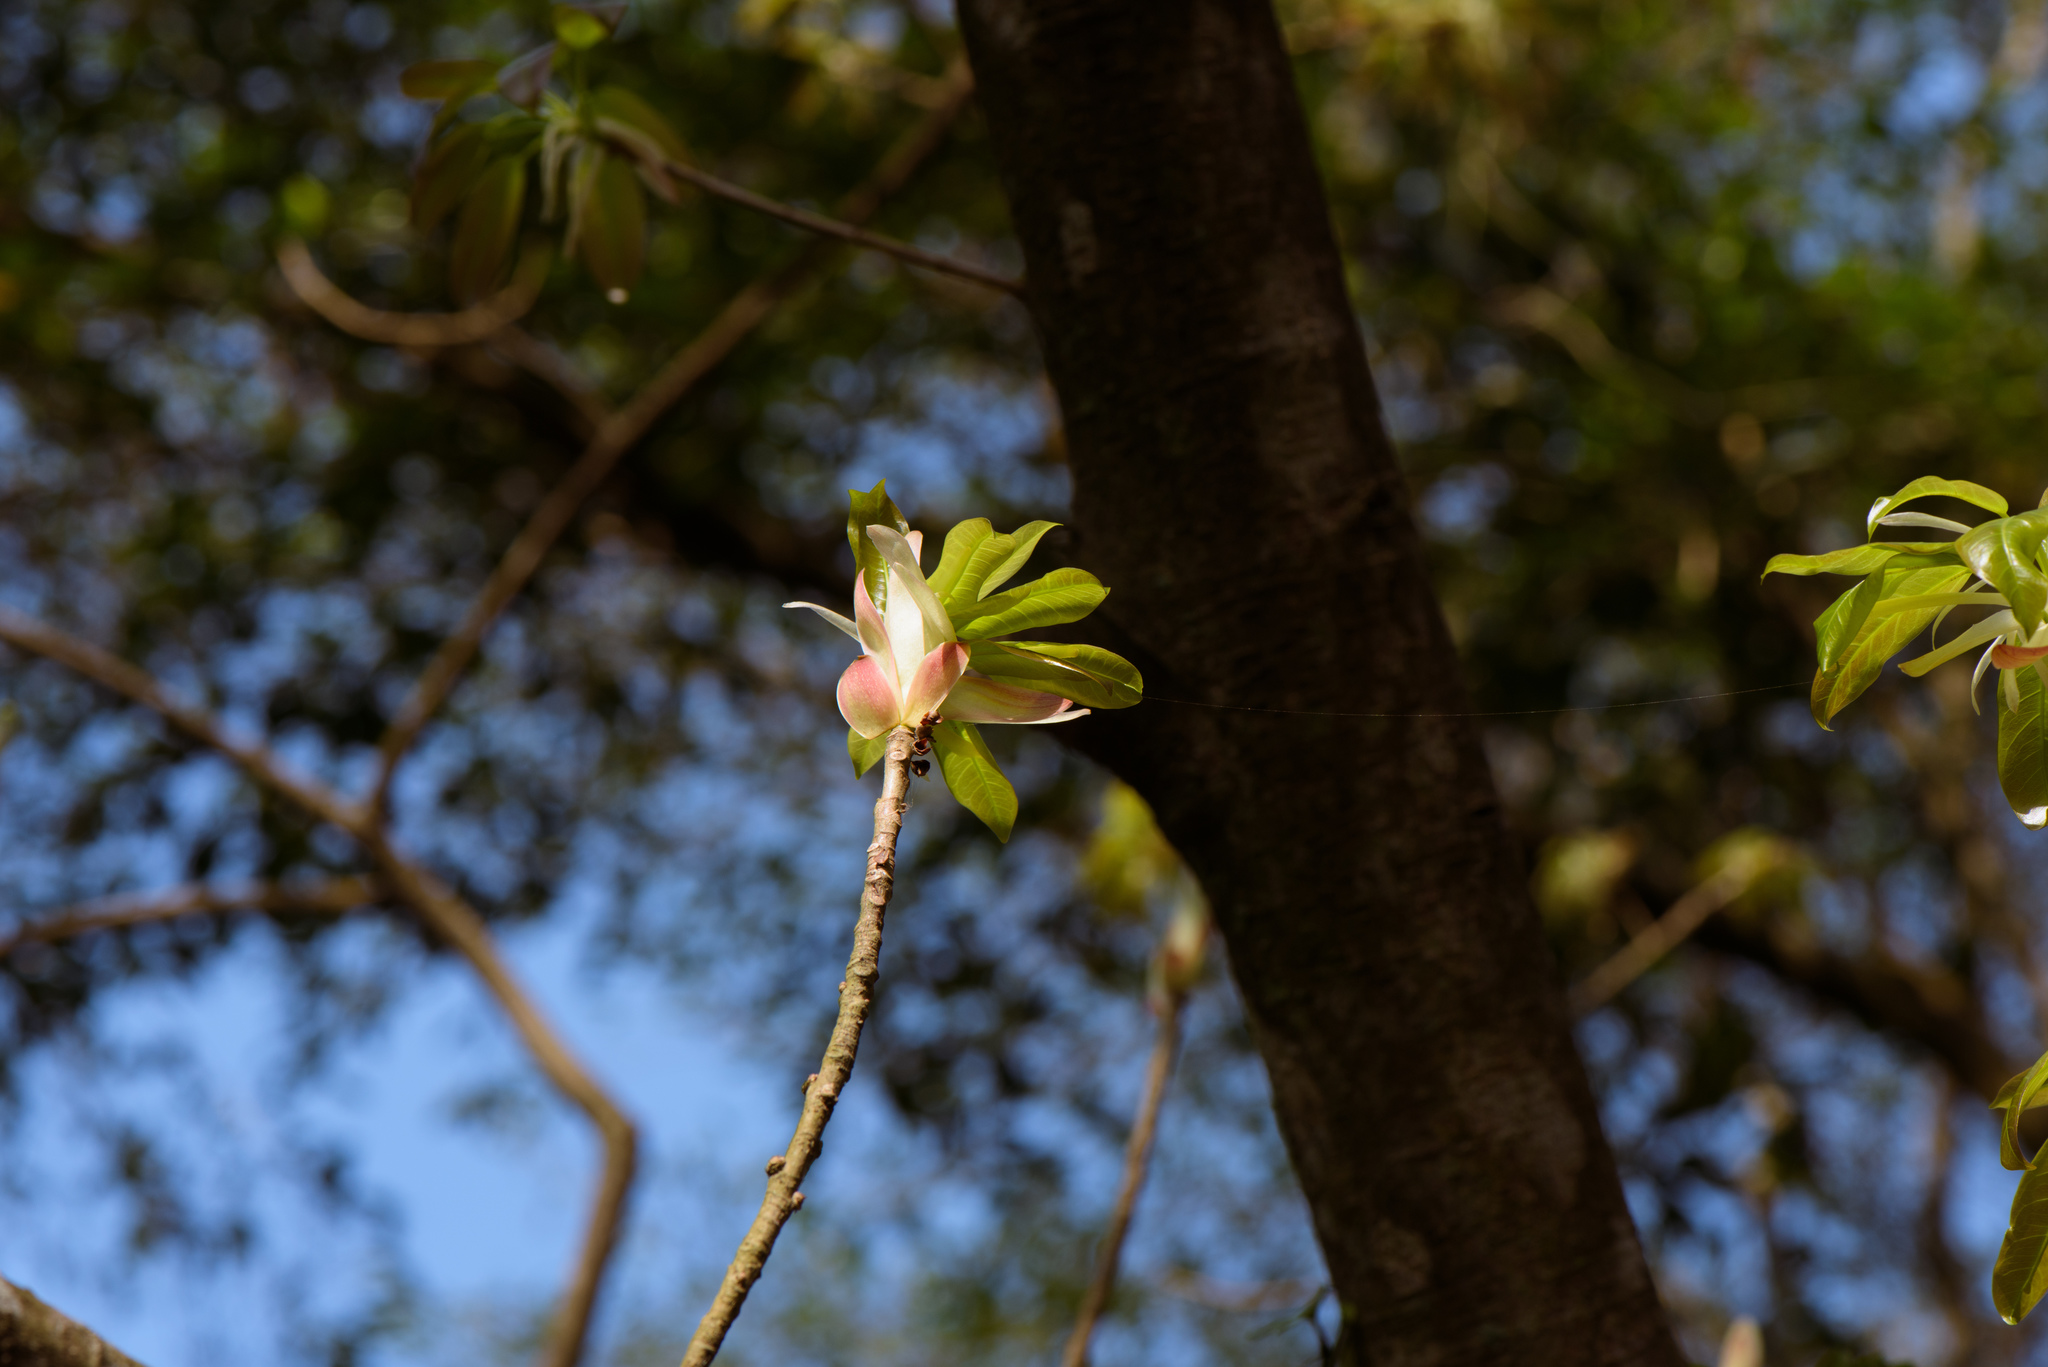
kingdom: Plantae
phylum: Tracheophyta
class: Magnoliopsida
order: Rosales
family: Moraceae
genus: Ficus
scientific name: Ficus subpisocarpa
